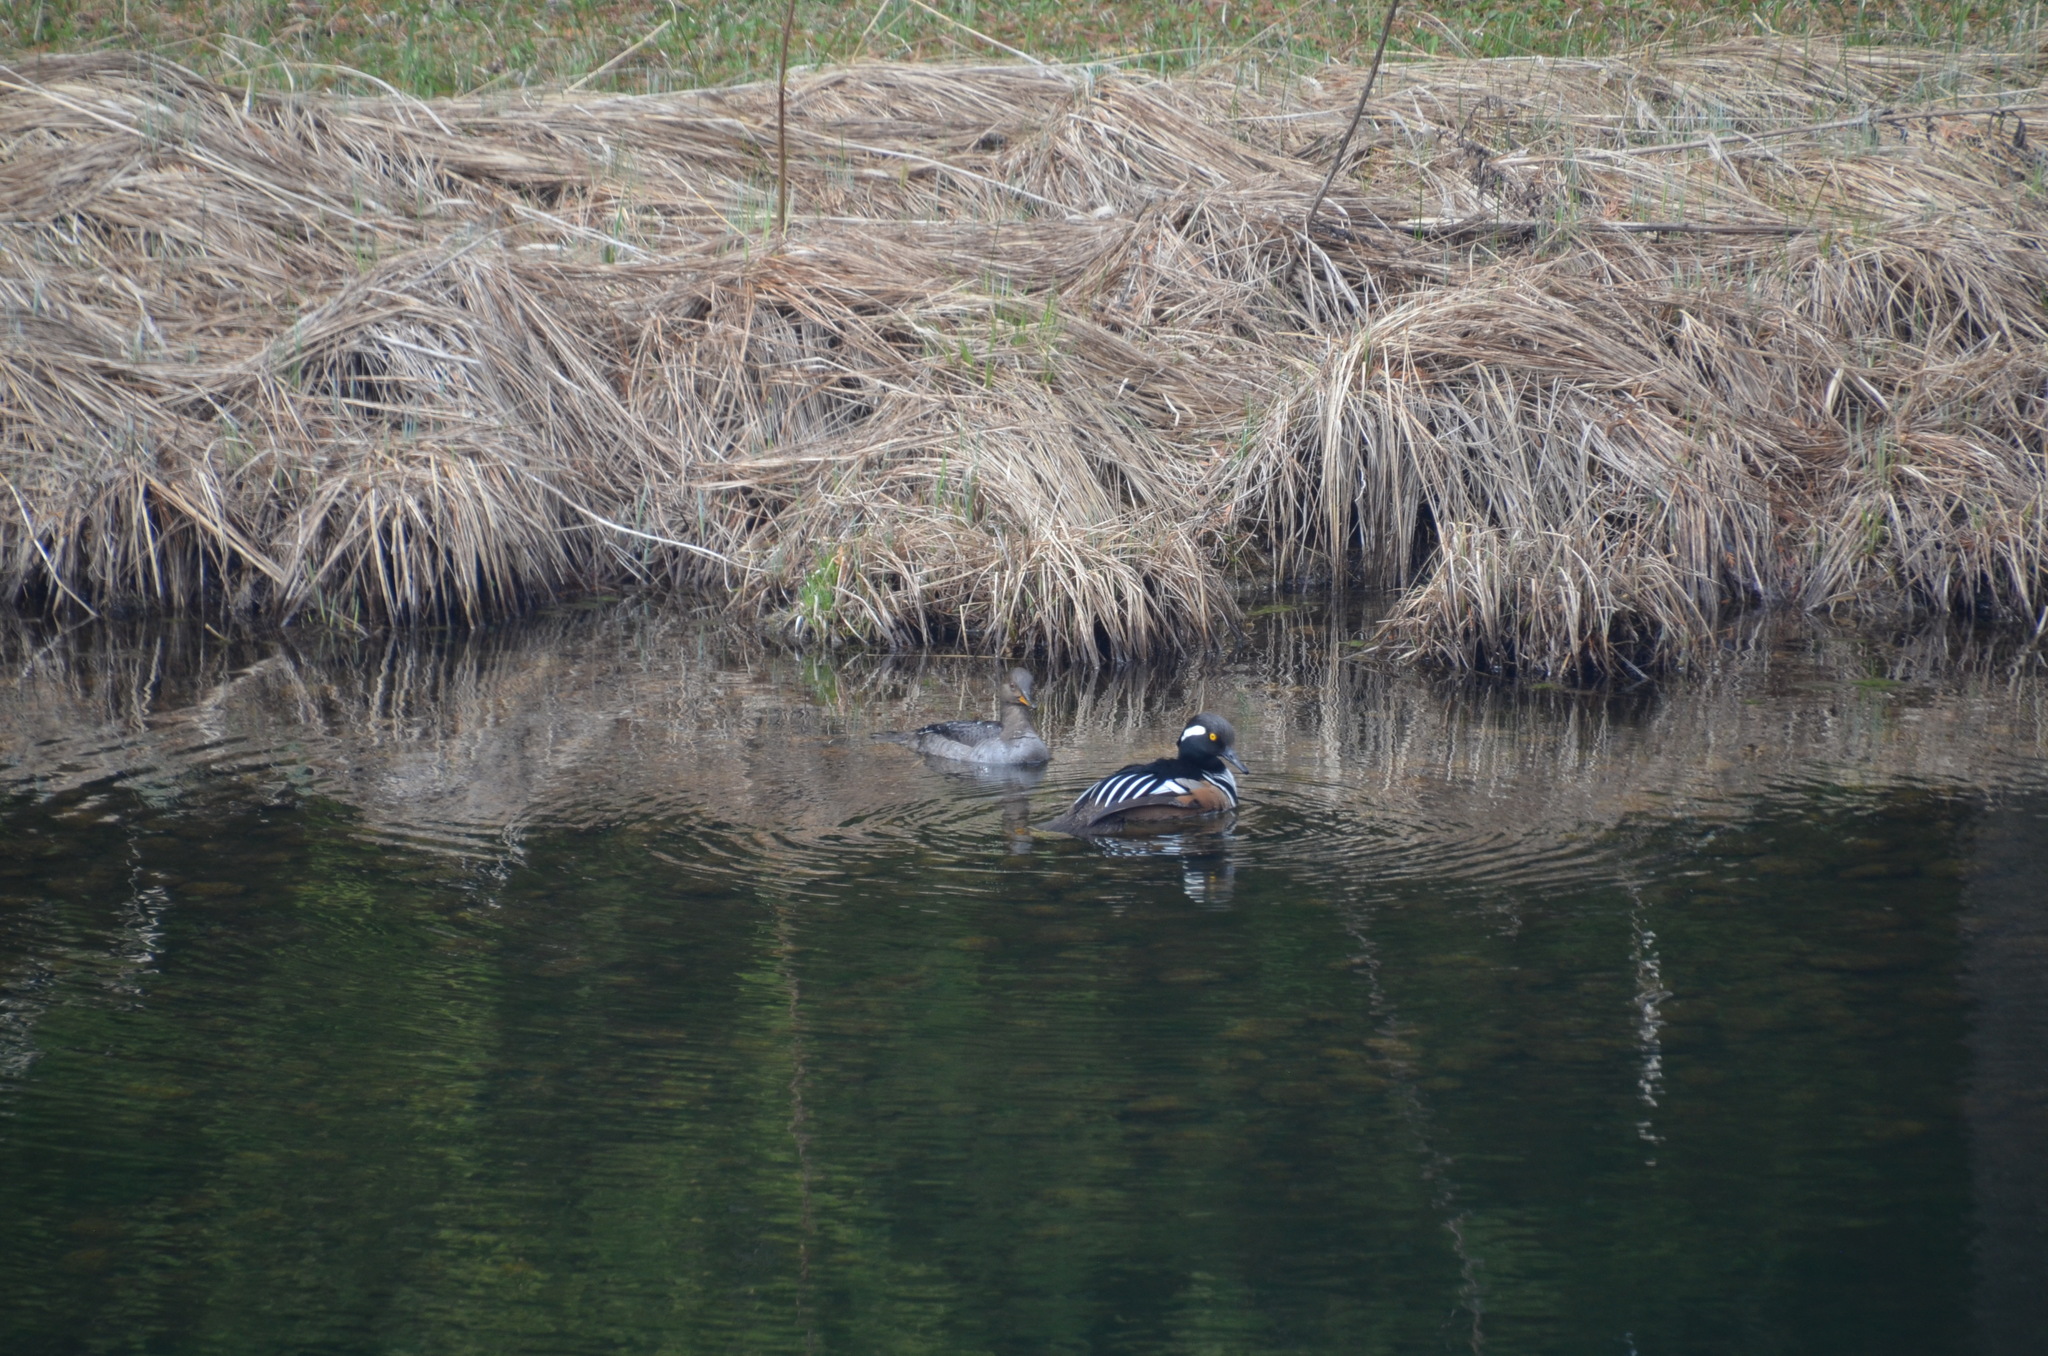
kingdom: Animalia
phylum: Chordata
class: Aves
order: Anseriformes
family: Anatidae
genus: Lophodytes
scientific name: Lophodytes cucullatus
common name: Hooded merganser
